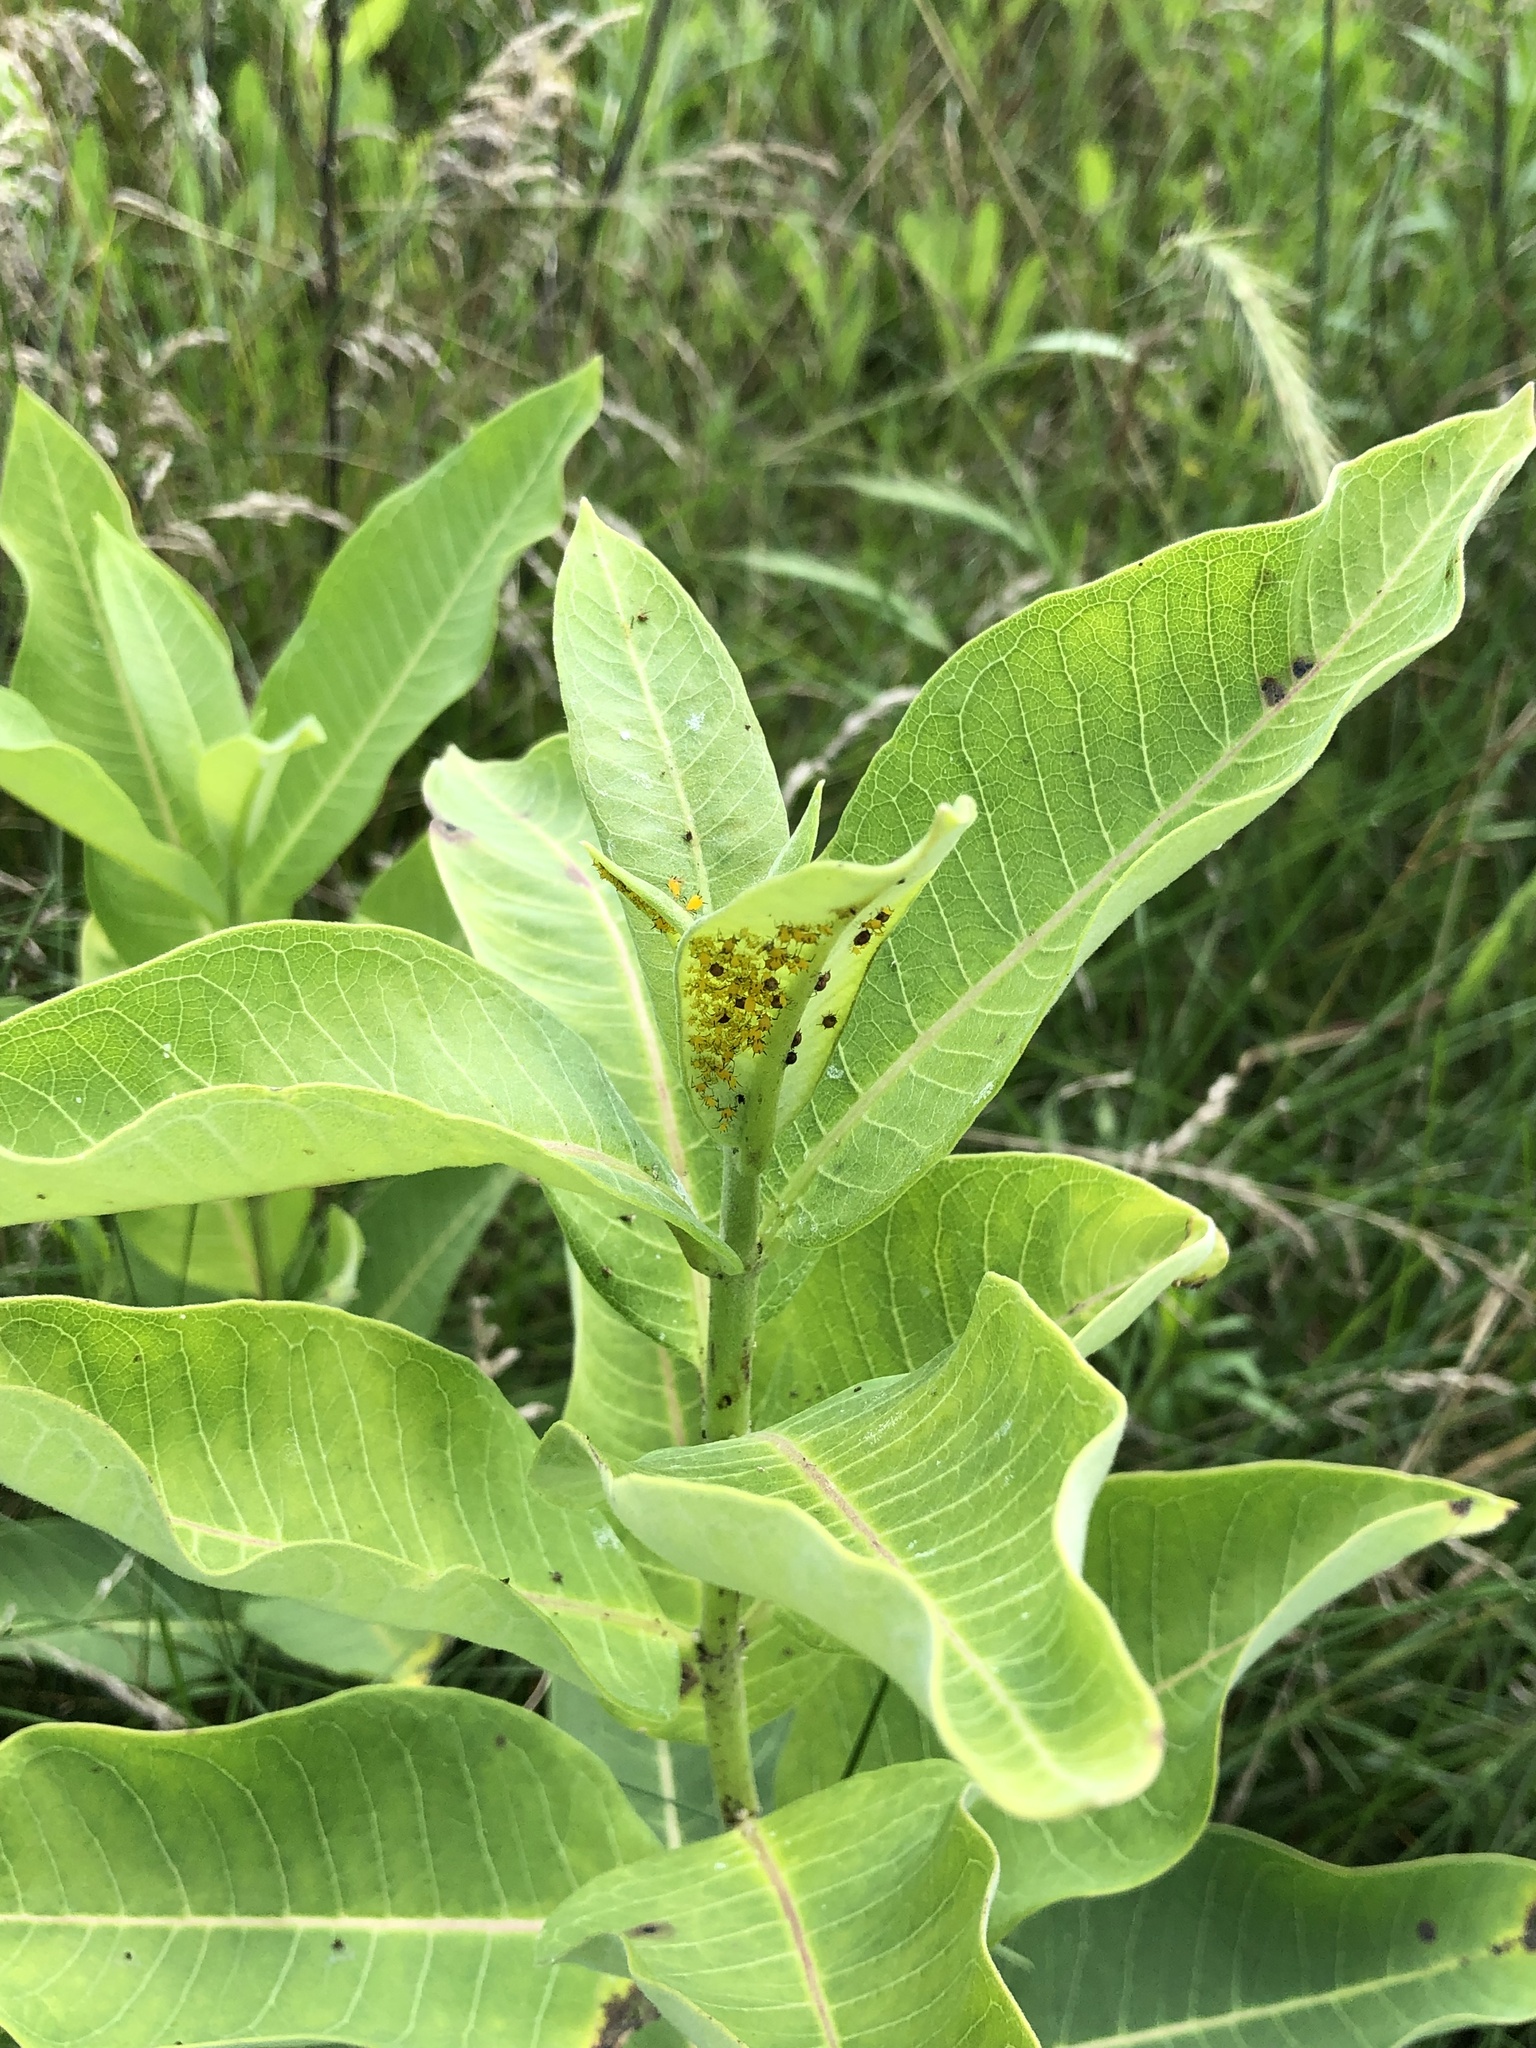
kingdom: Animalia
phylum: Arthropoda
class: Insecta
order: Hemiptera
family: Aphididae
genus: Aphis
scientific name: Aphis nerii
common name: Oleander aphid
